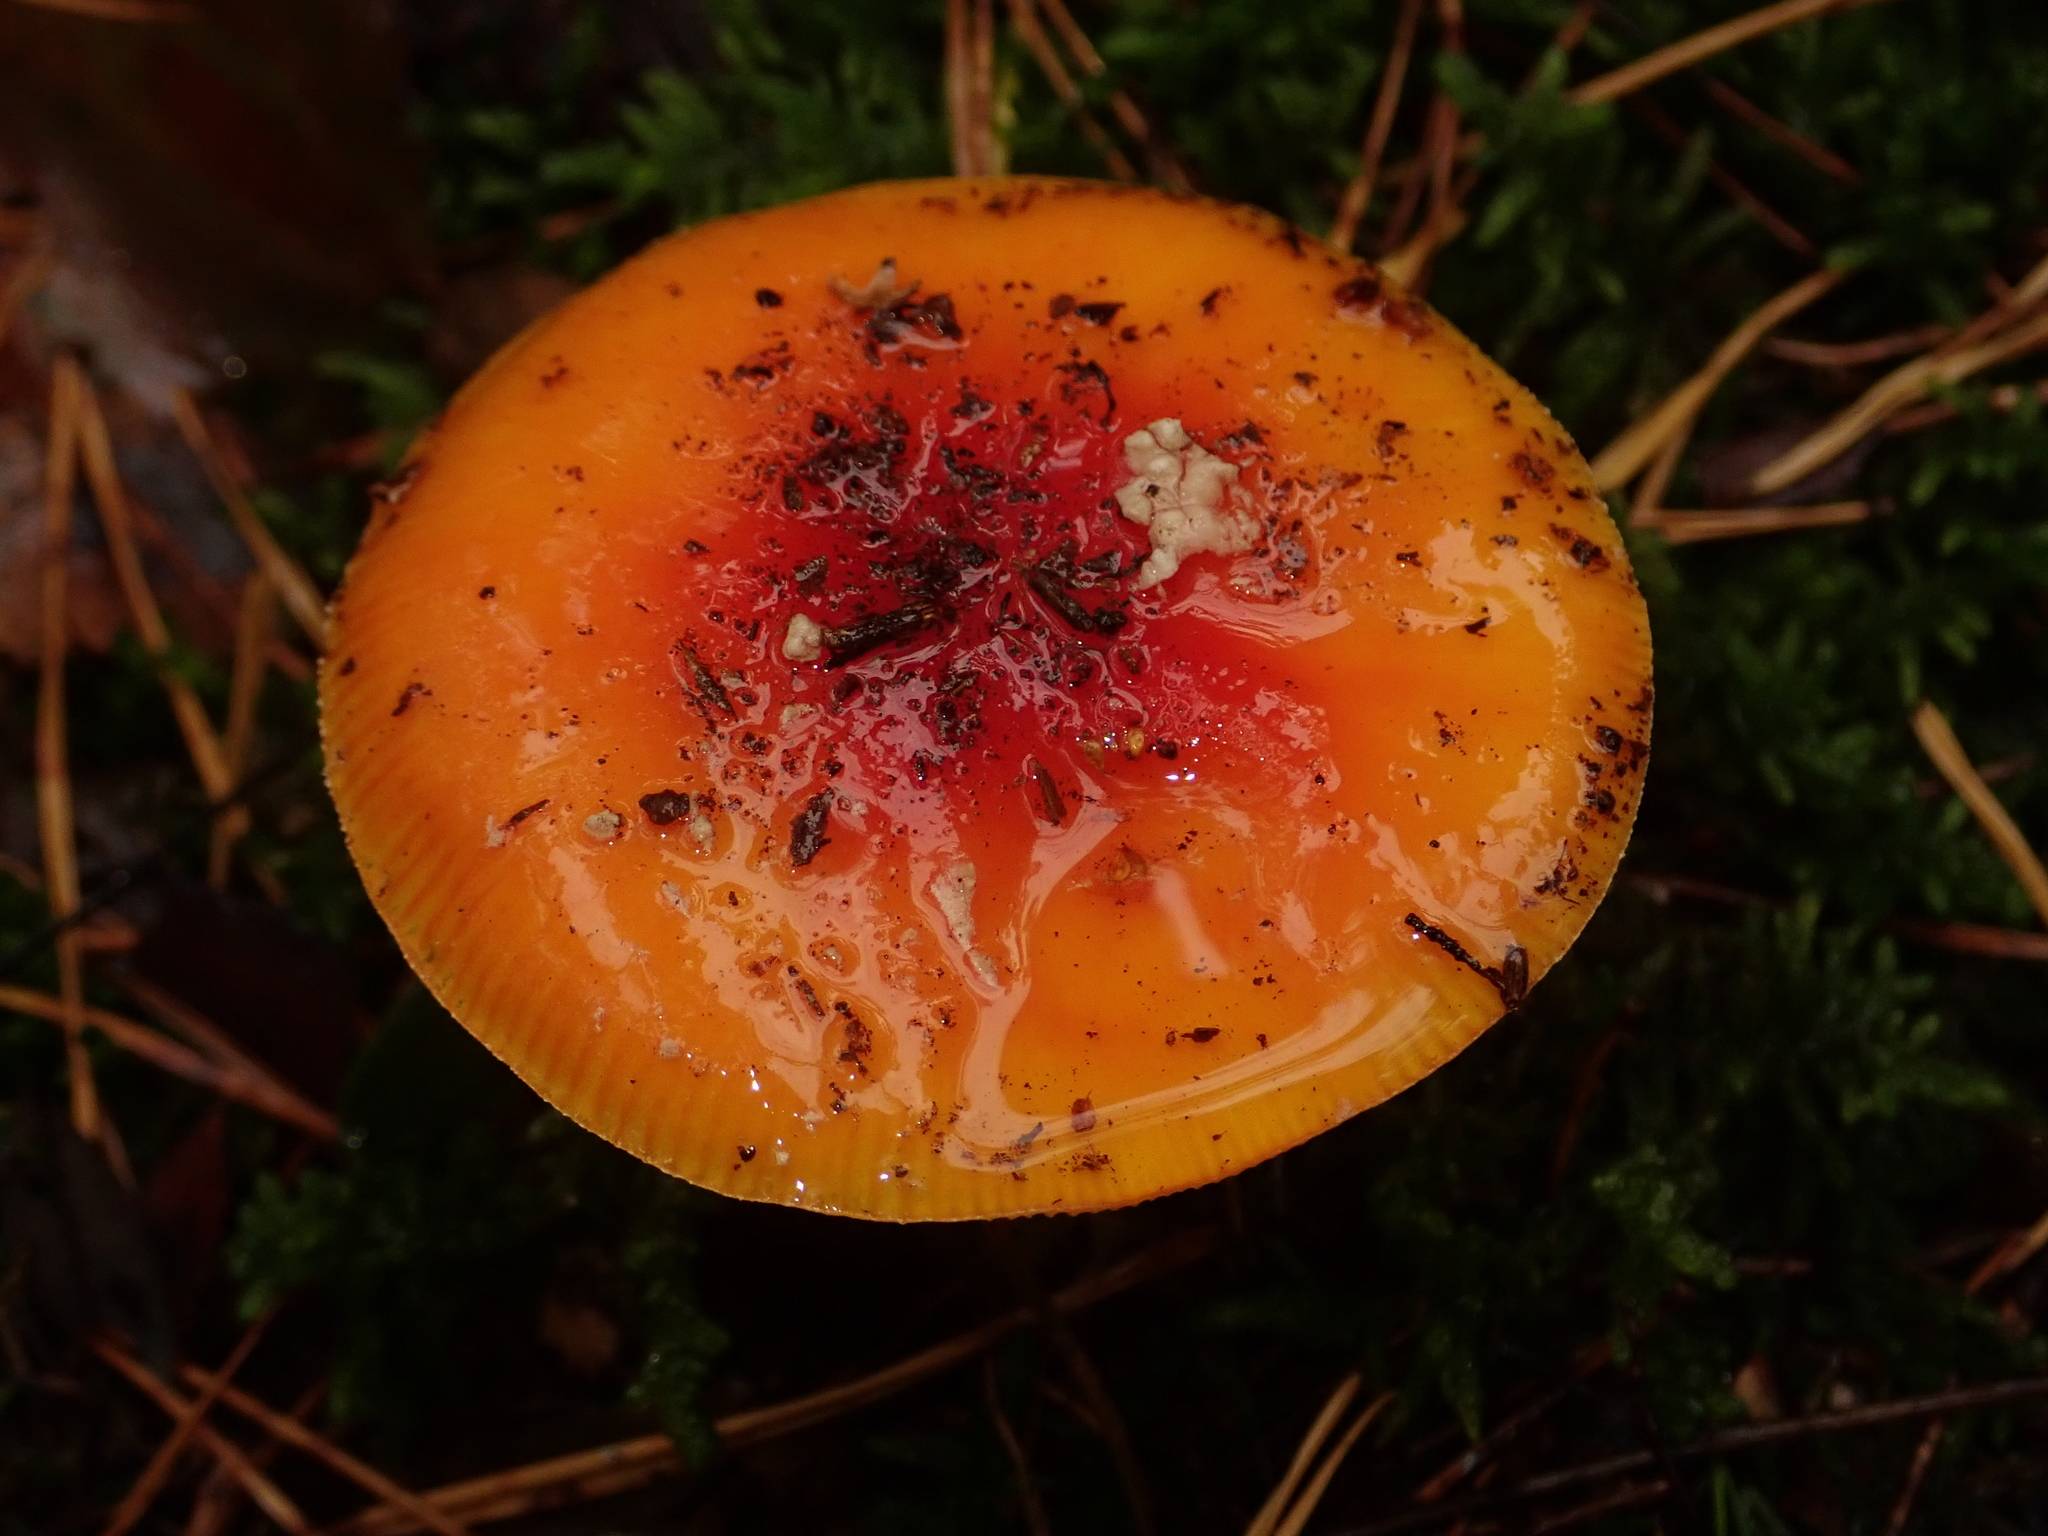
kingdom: Fungi
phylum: Basidiomycota
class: Agaricomycetes
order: Agaricales
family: Amanitaceae
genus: Amanita
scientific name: Amanita muscaria
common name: Fly agaric
